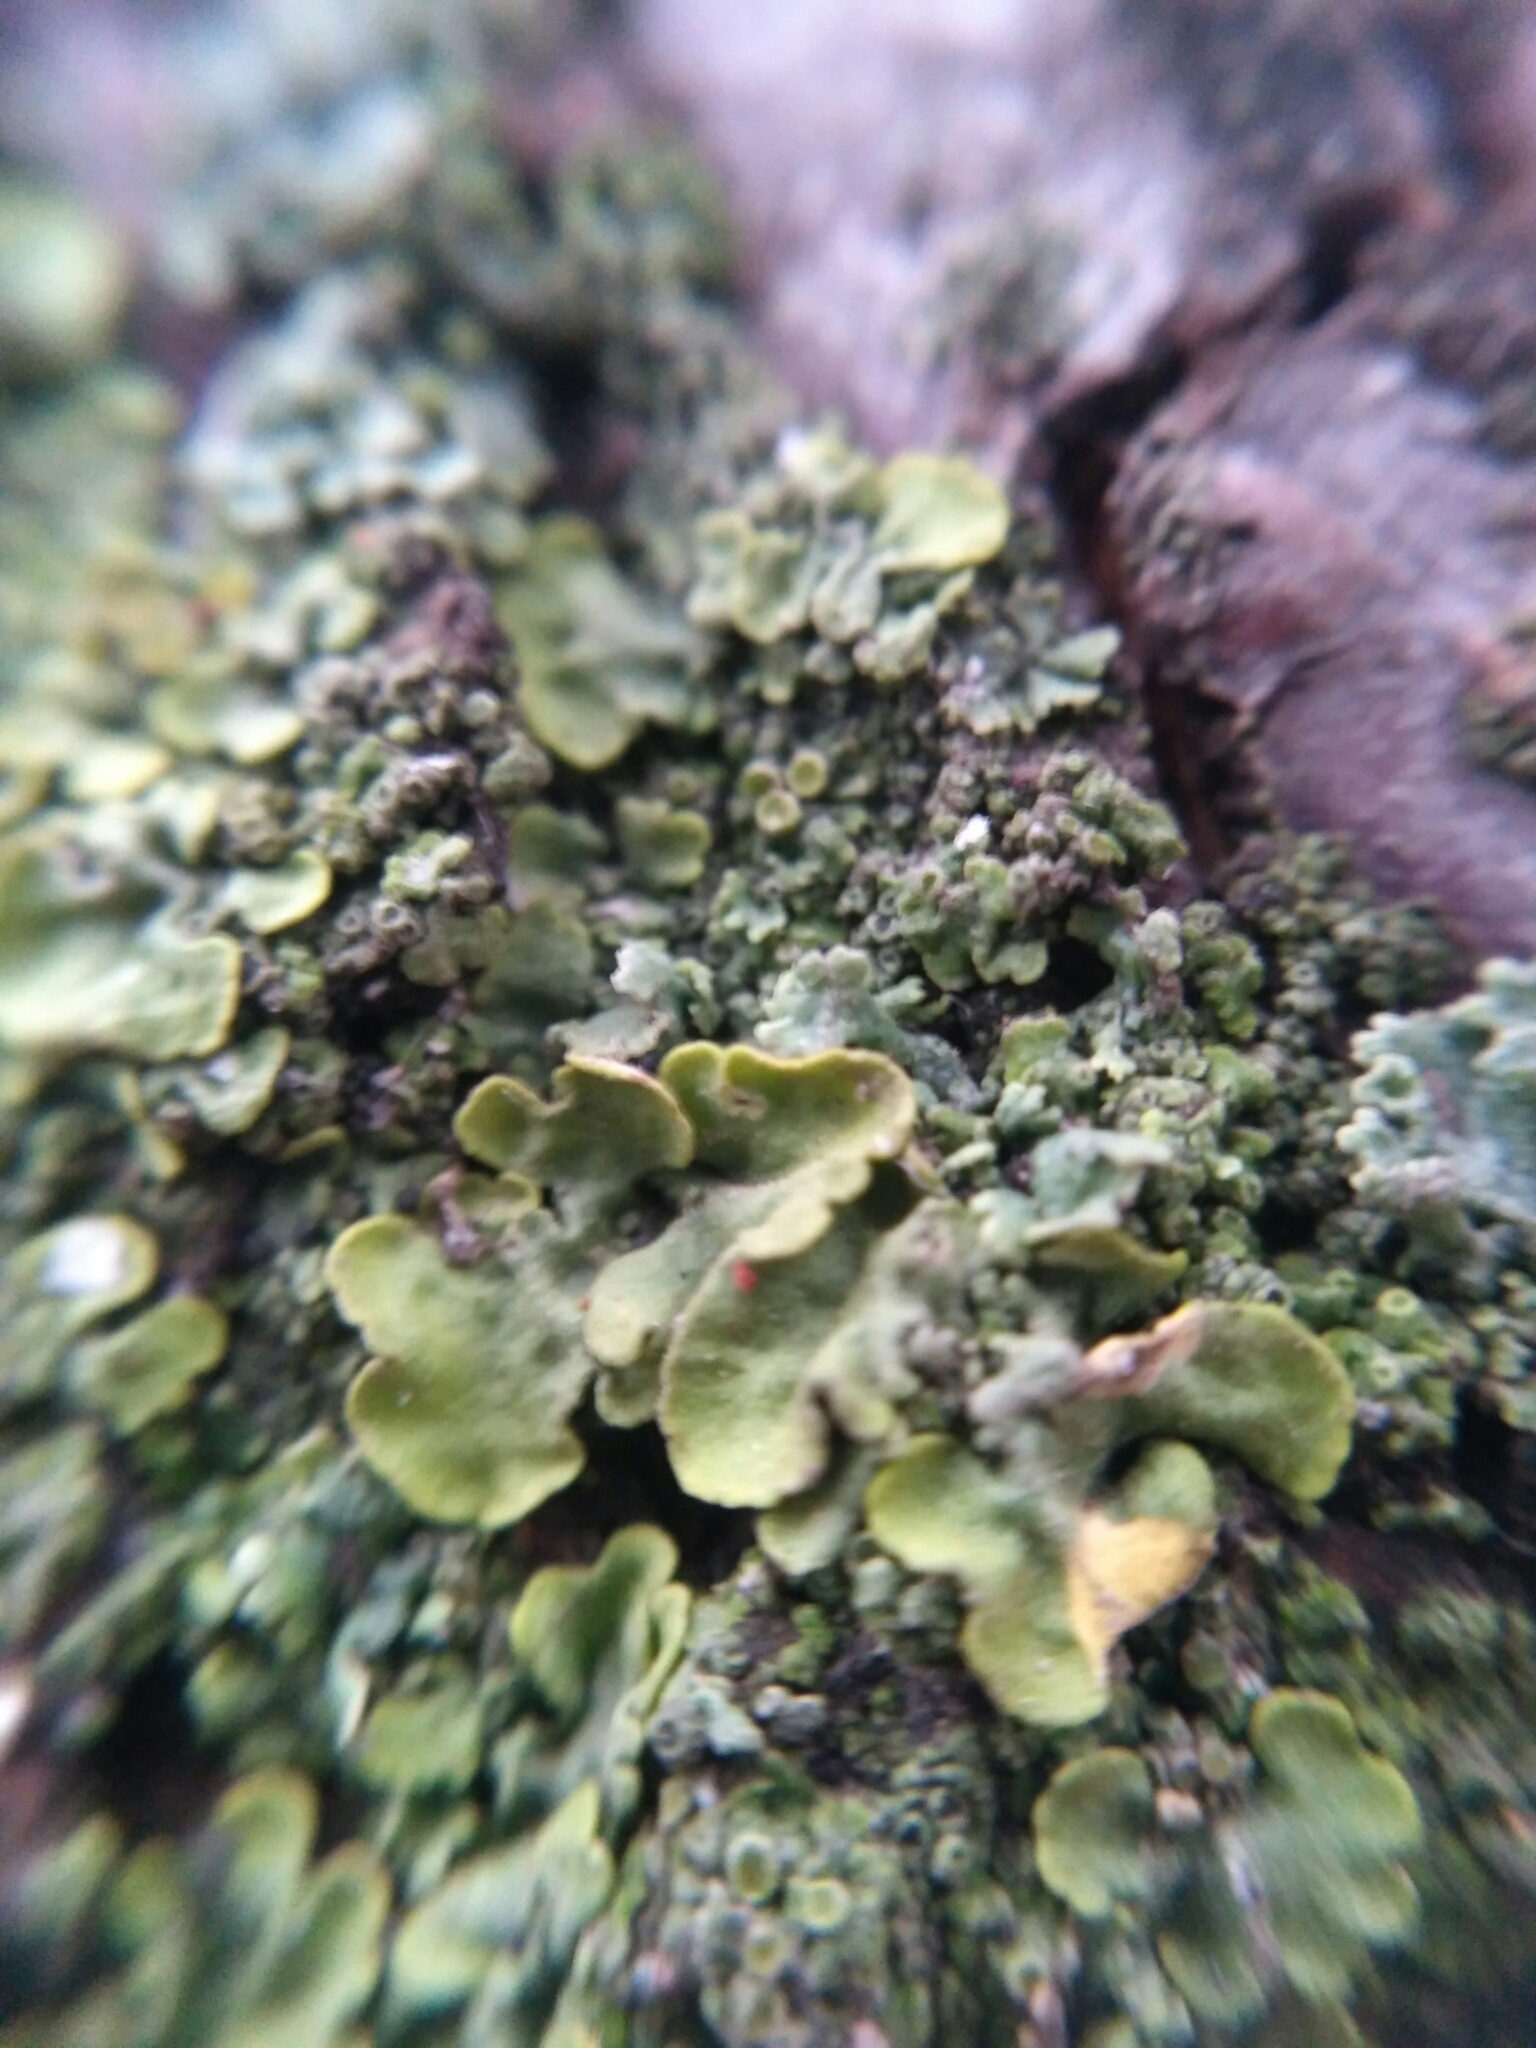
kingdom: Fungi
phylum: Ascomycota
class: Lecanoromycetes
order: Teloschistales
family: Teloschistaceae
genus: Xanthoria
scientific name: Xanthoria parietina
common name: Common orange lichen
